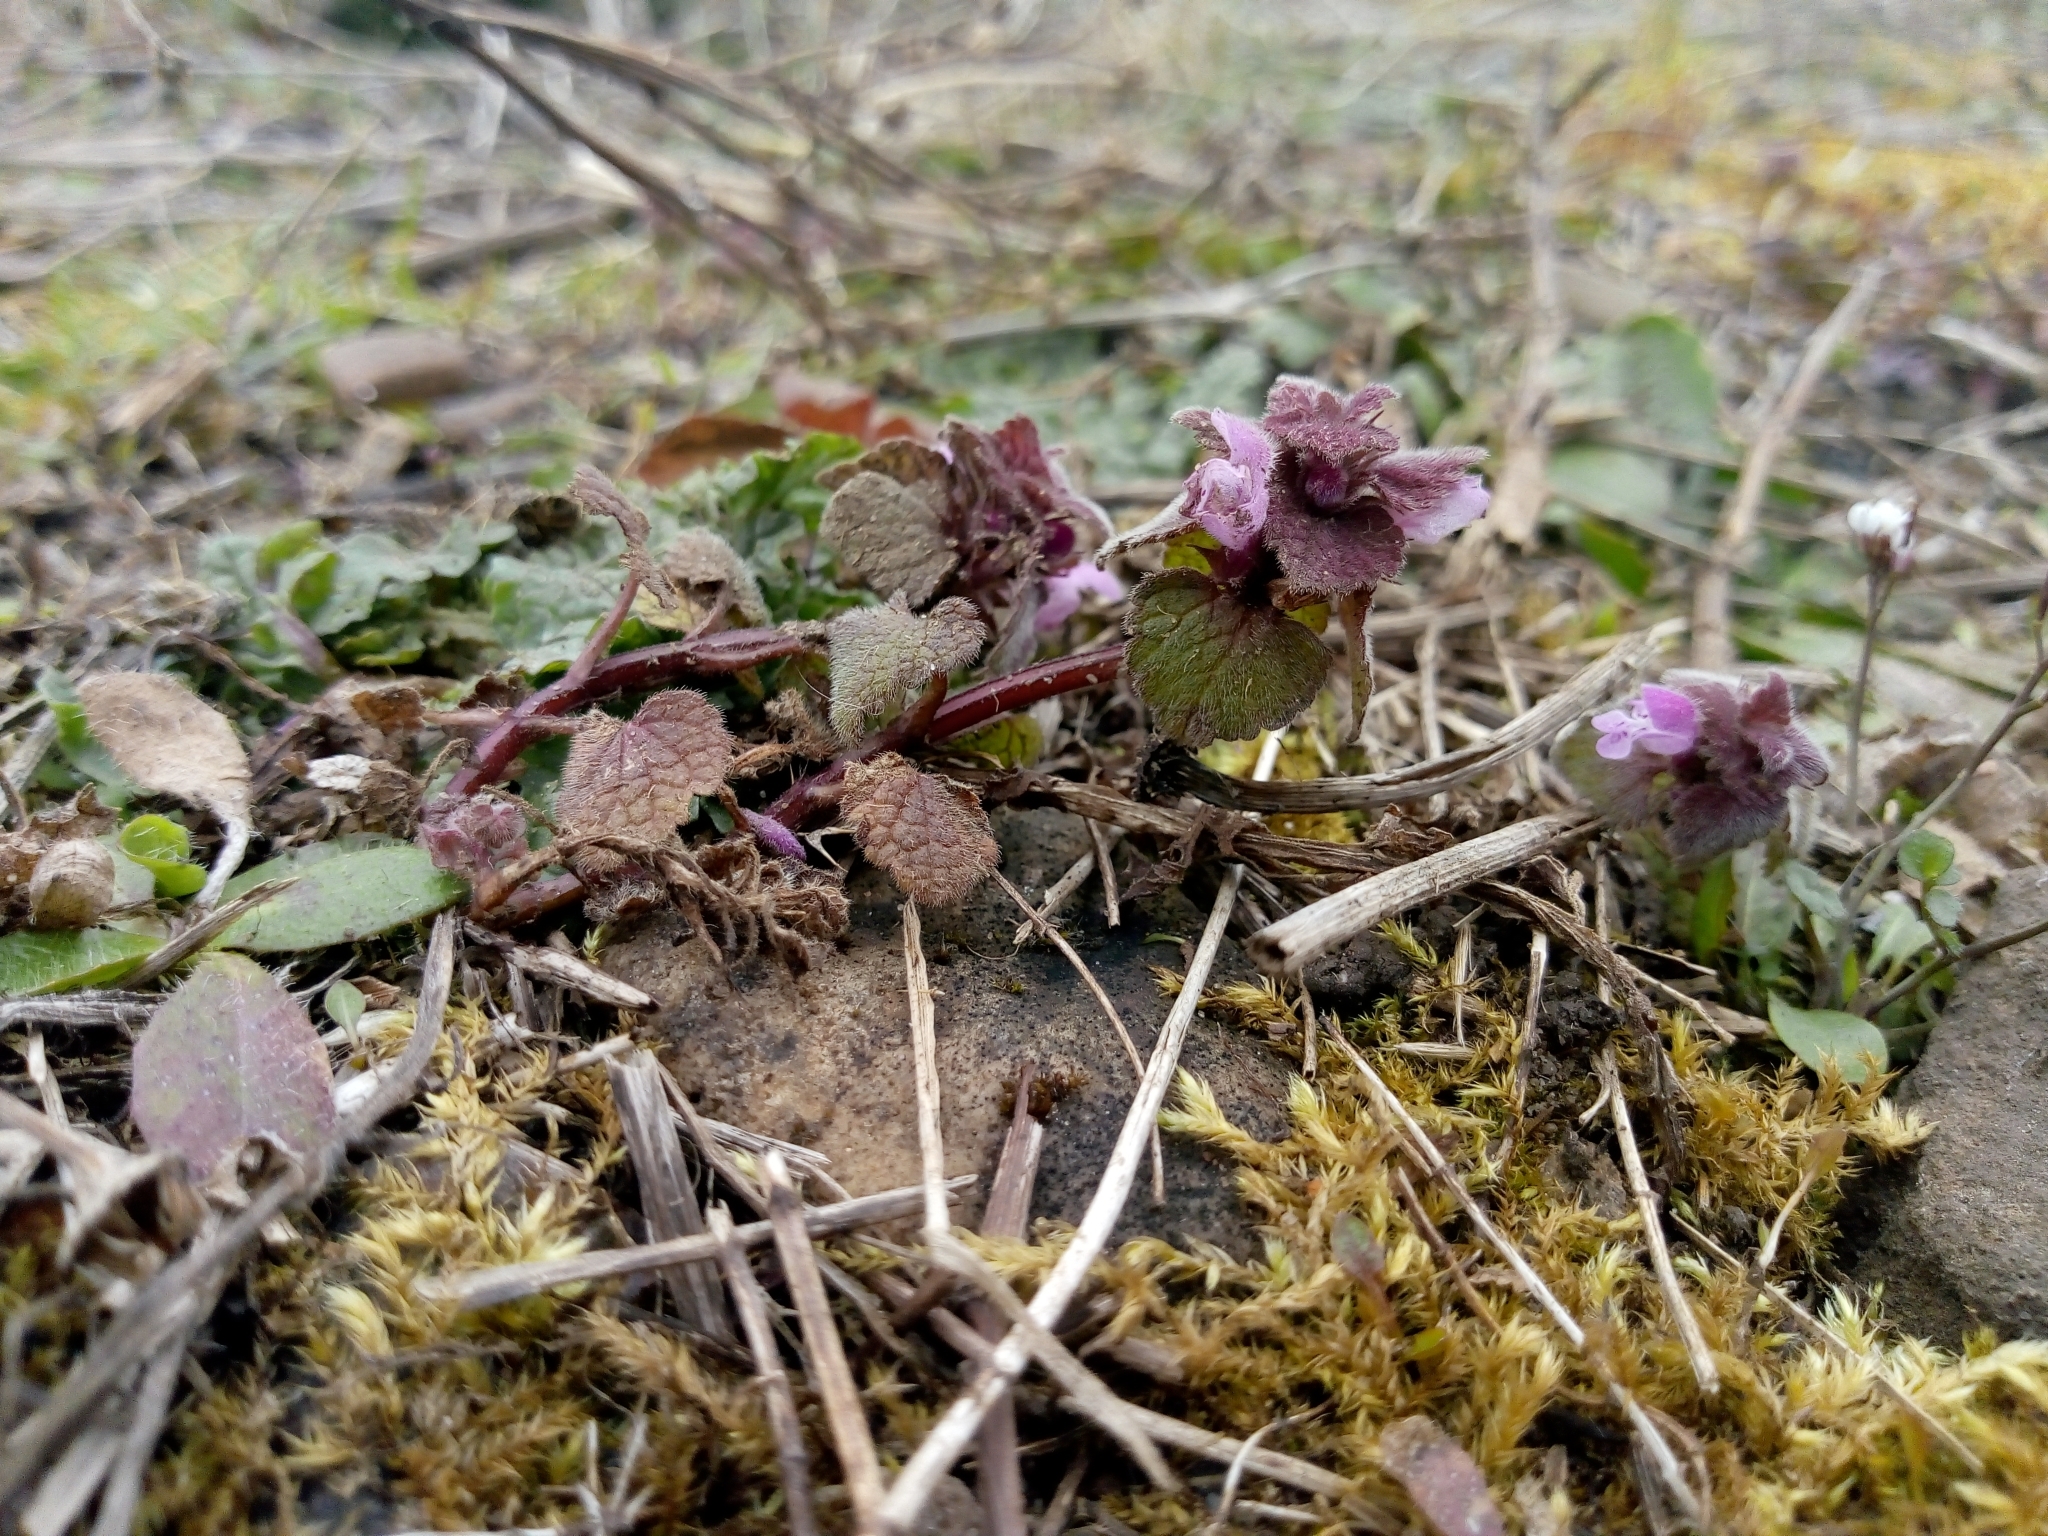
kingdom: Plantae
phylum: Tracheophyta
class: Magnoliopsida
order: Lamiales
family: Lamiaceae
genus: Lamium
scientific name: Lamium purpureum
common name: Red dead-nettle
